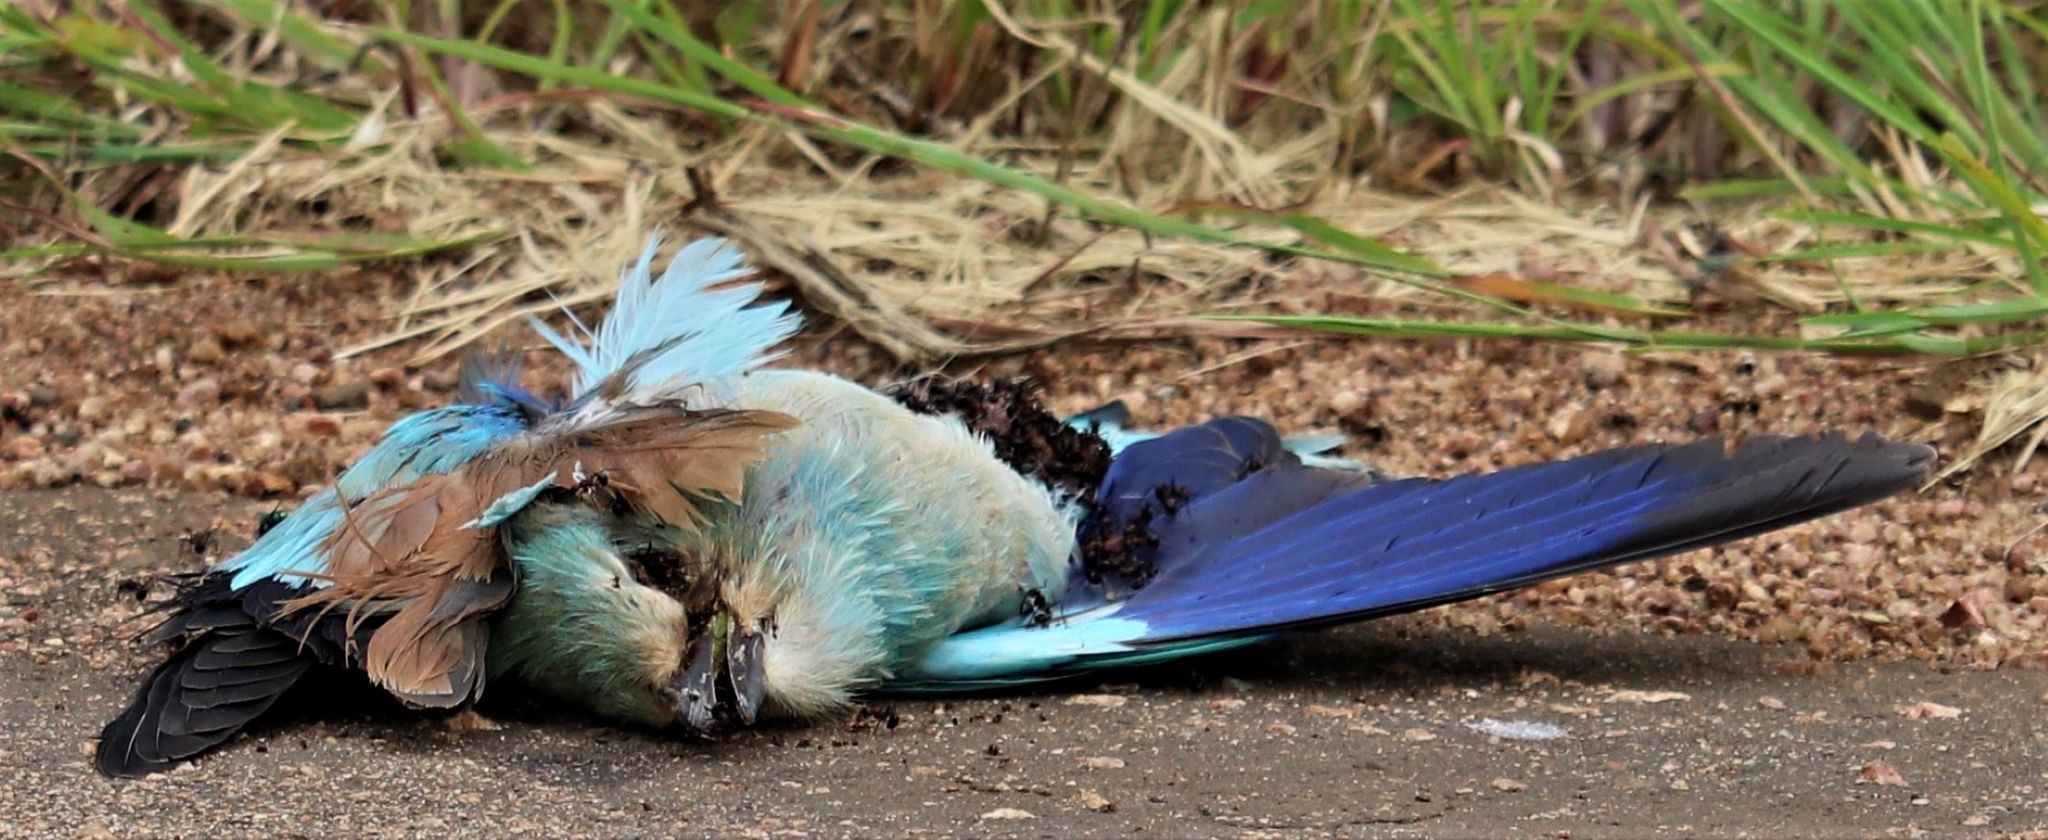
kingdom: Animalia
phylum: Chordata
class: Aves
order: Coraciiformes
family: Coraciidae
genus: Coracias
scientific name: Coracias garrulus
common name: European roller
